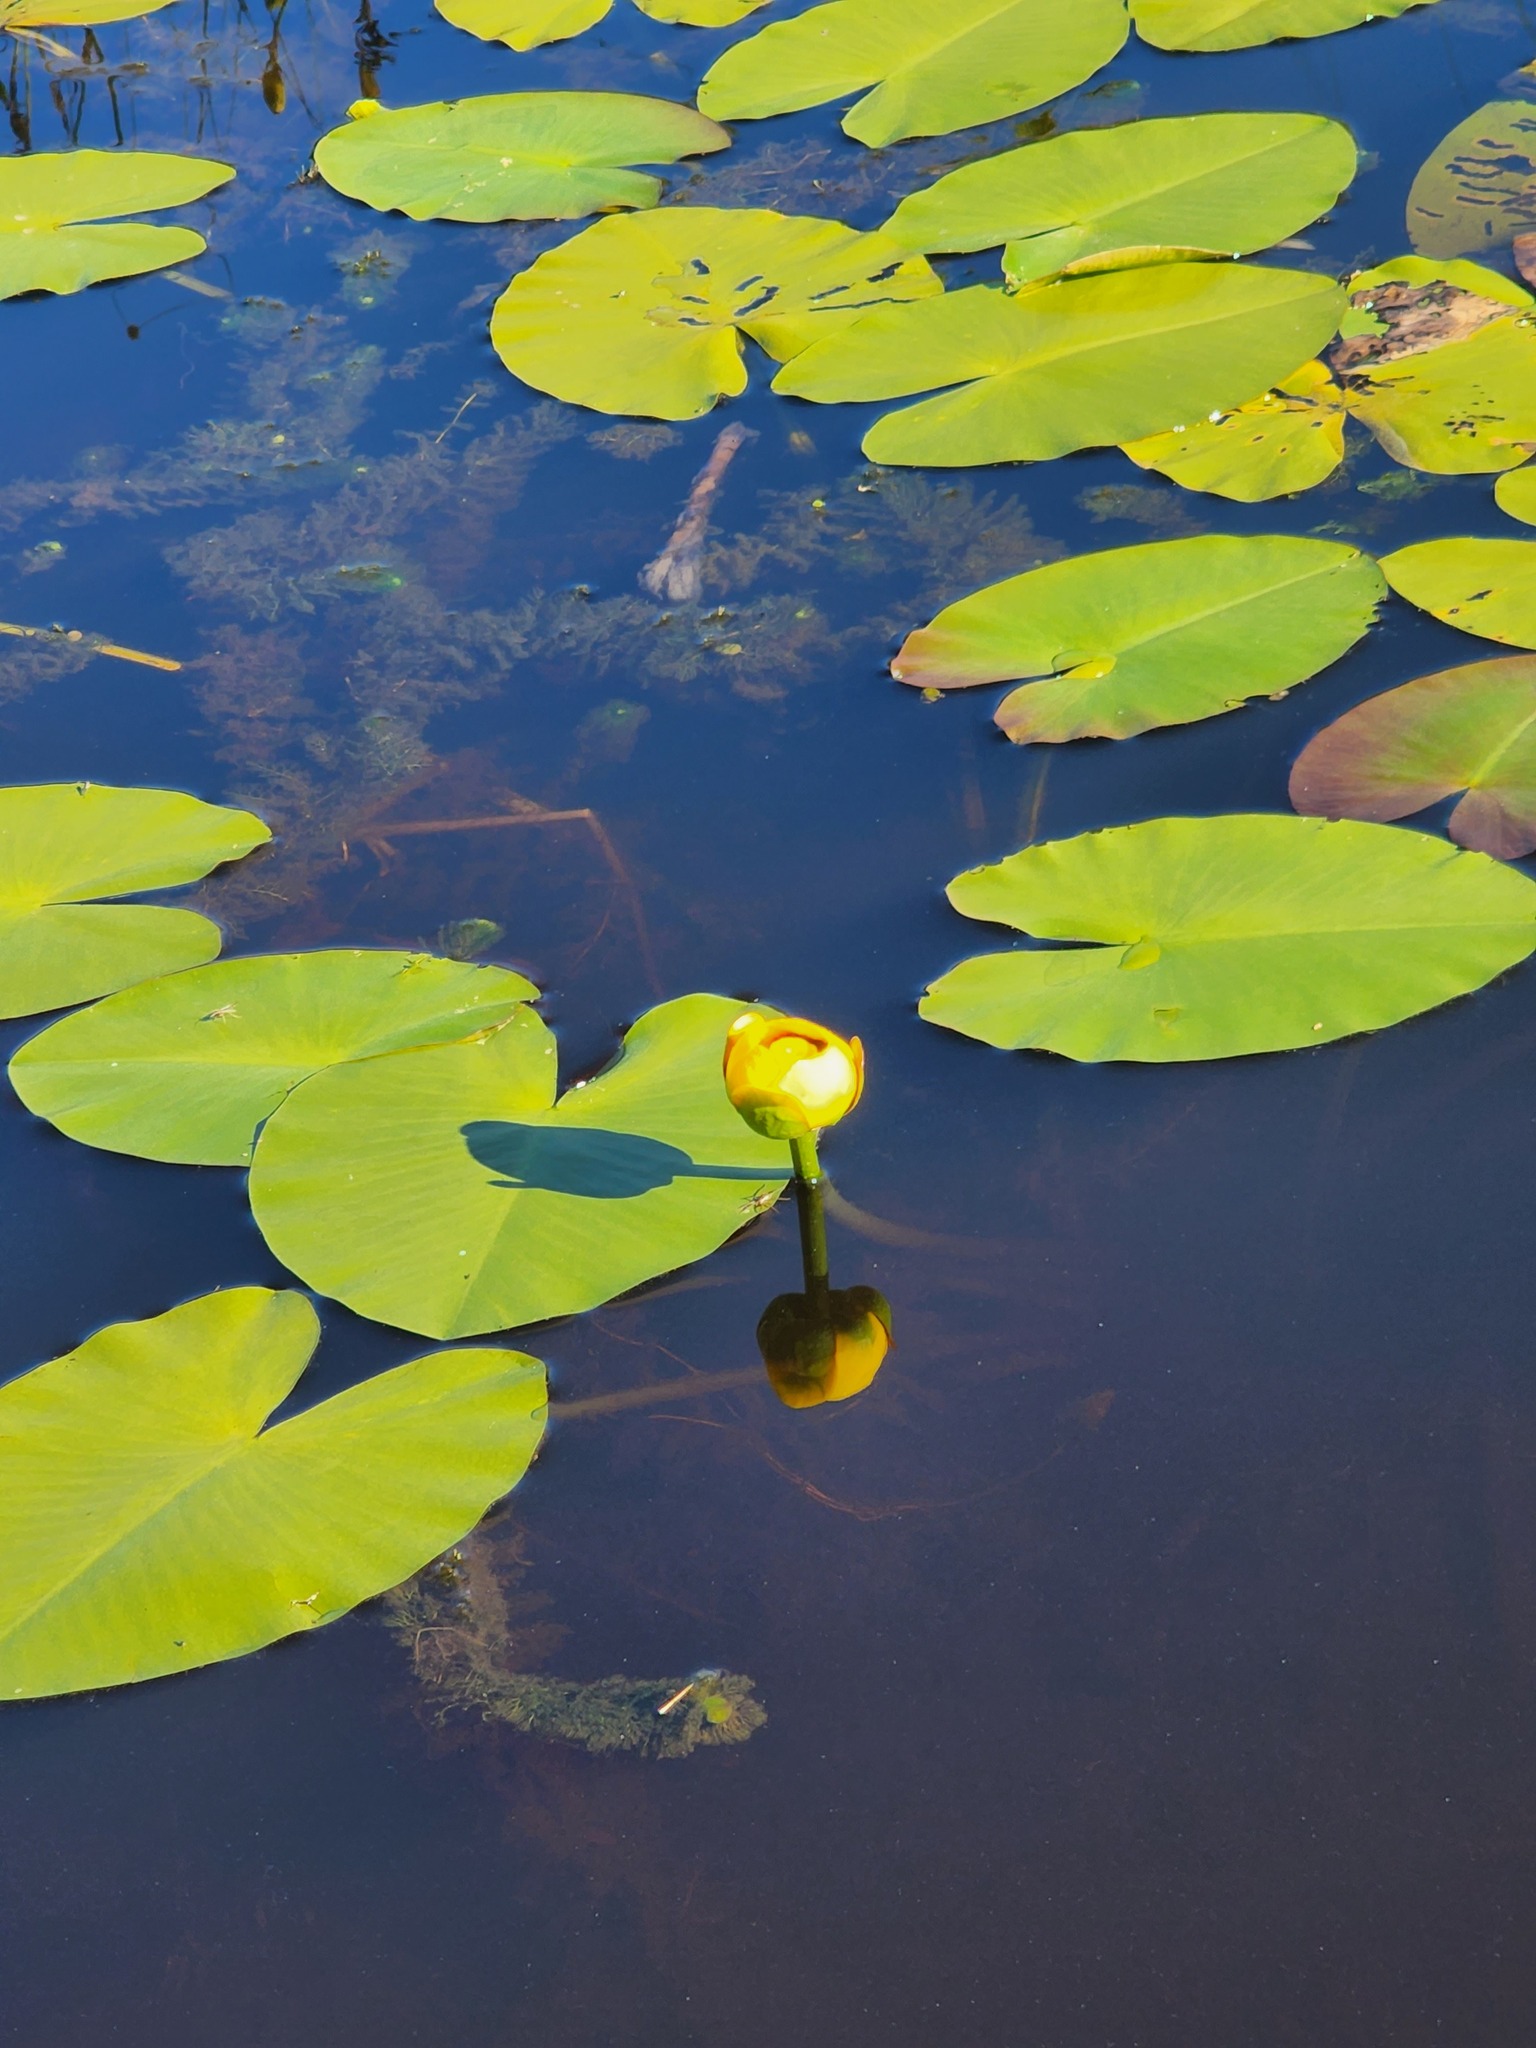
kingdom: Plantae
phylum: Tracheophyta
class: Magnoliopsida
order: Nymphaeales
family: Nymphaeaceae
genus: Nuphar
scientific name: Nuphar variegata
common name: Beaver-root
